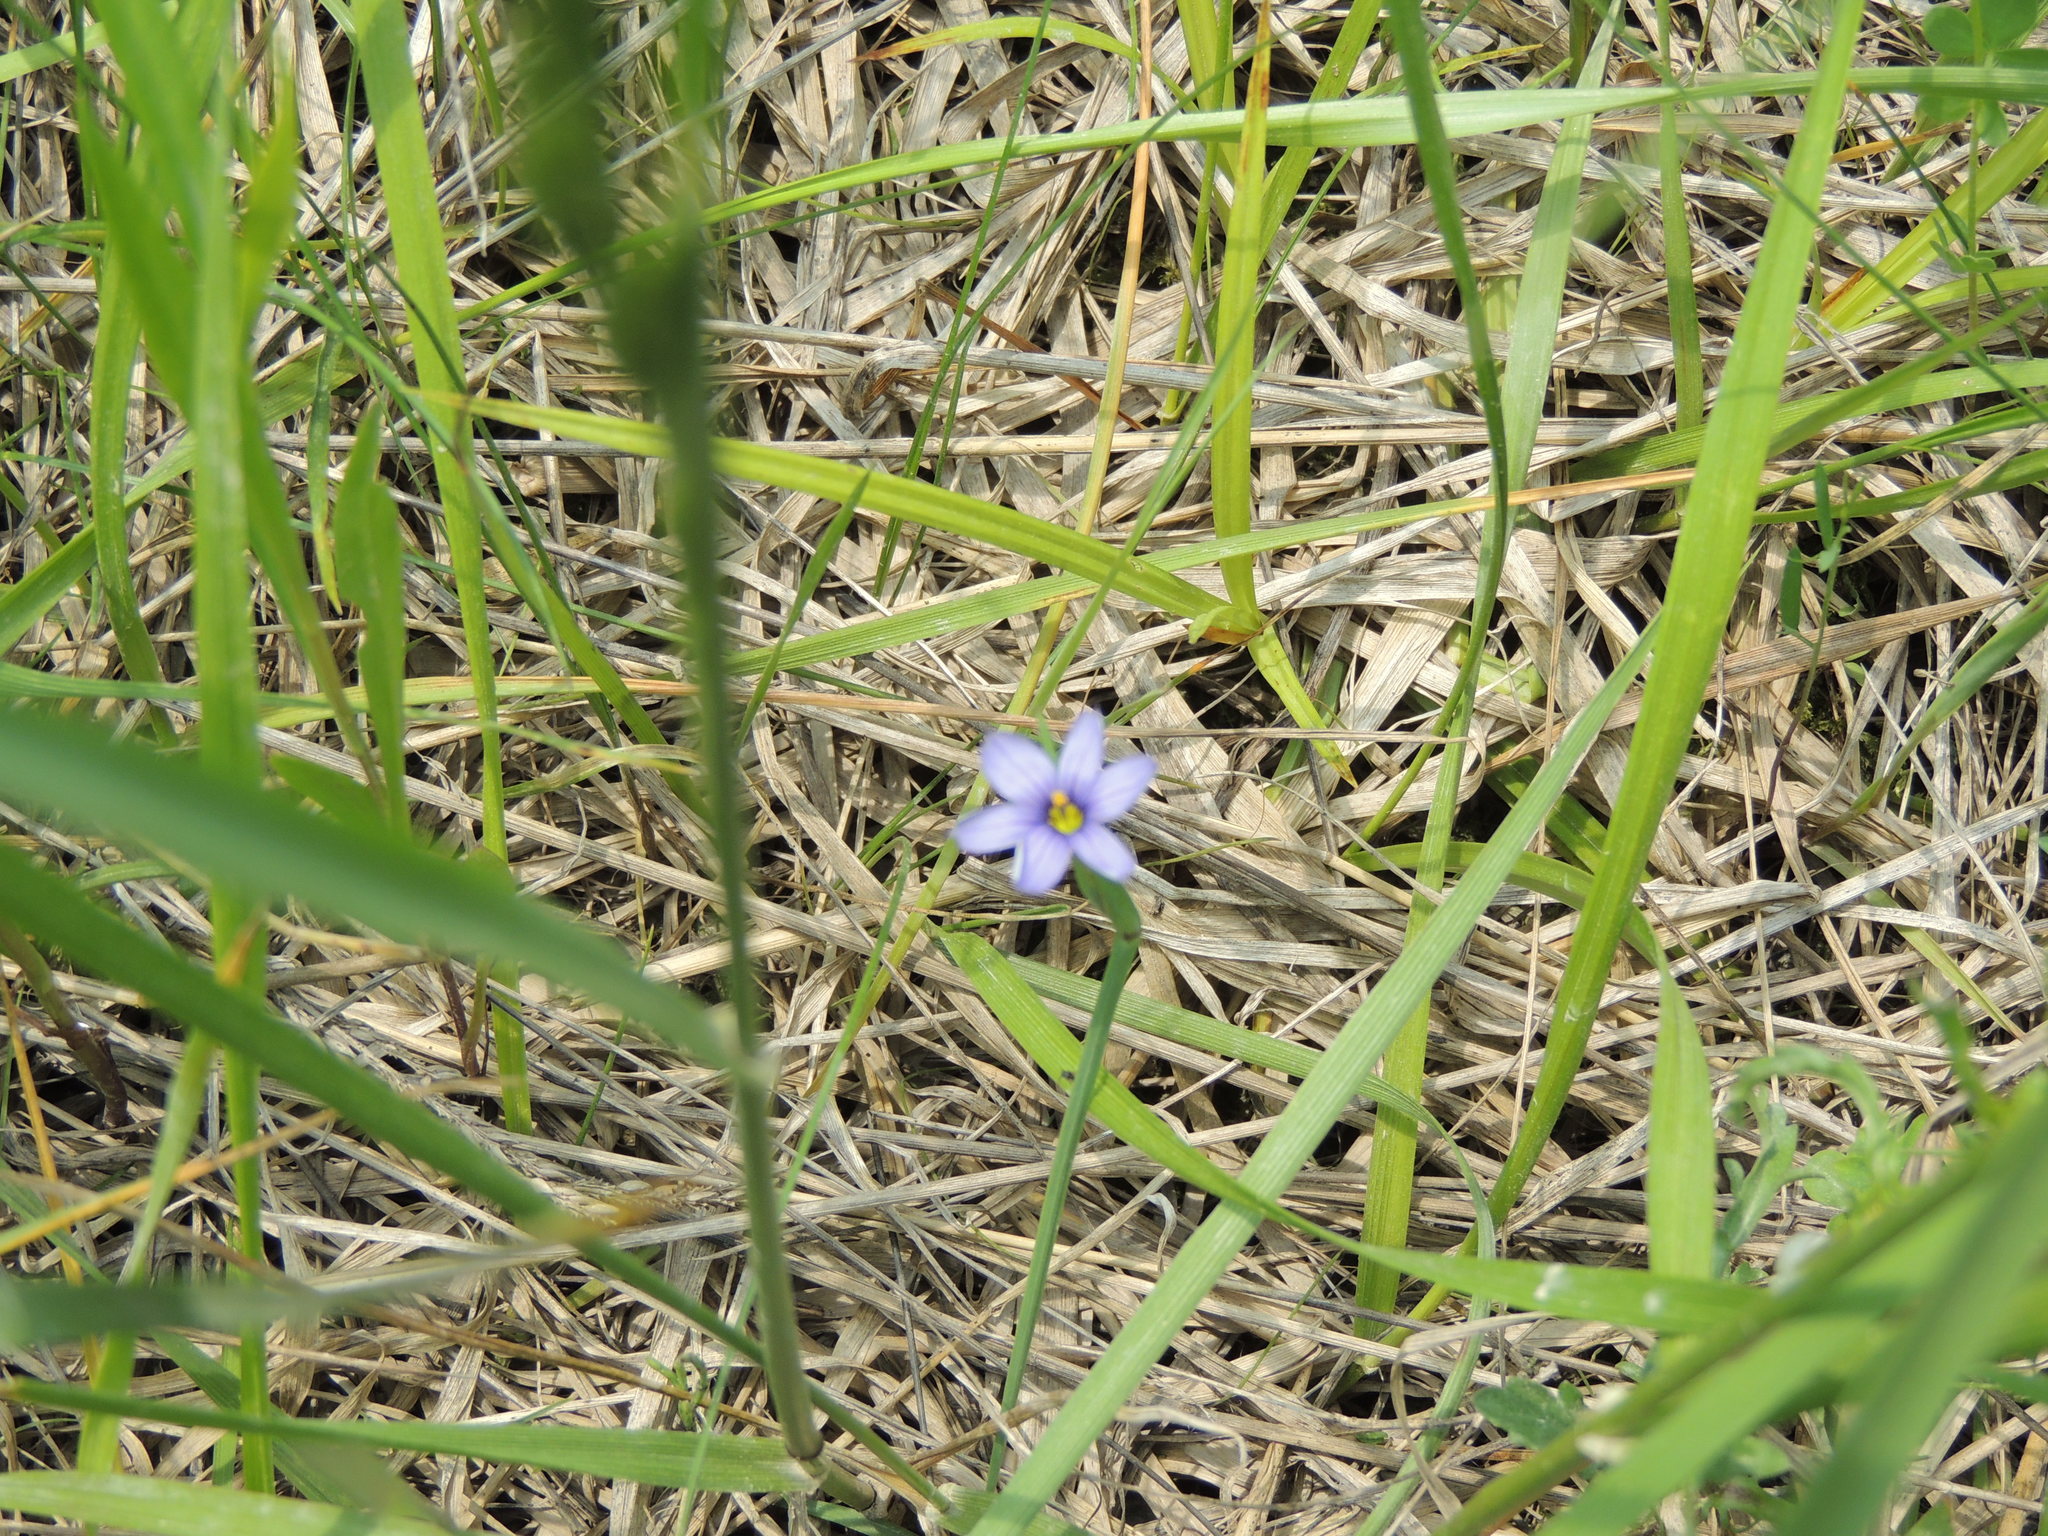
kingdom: Plantae
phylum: Tracheophyta
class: Liliopsida
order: Asparagales
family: Iridaceae
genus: Sisyrinchium
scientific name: Sisyrinchium montanum
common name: American blue-eyed-grass
